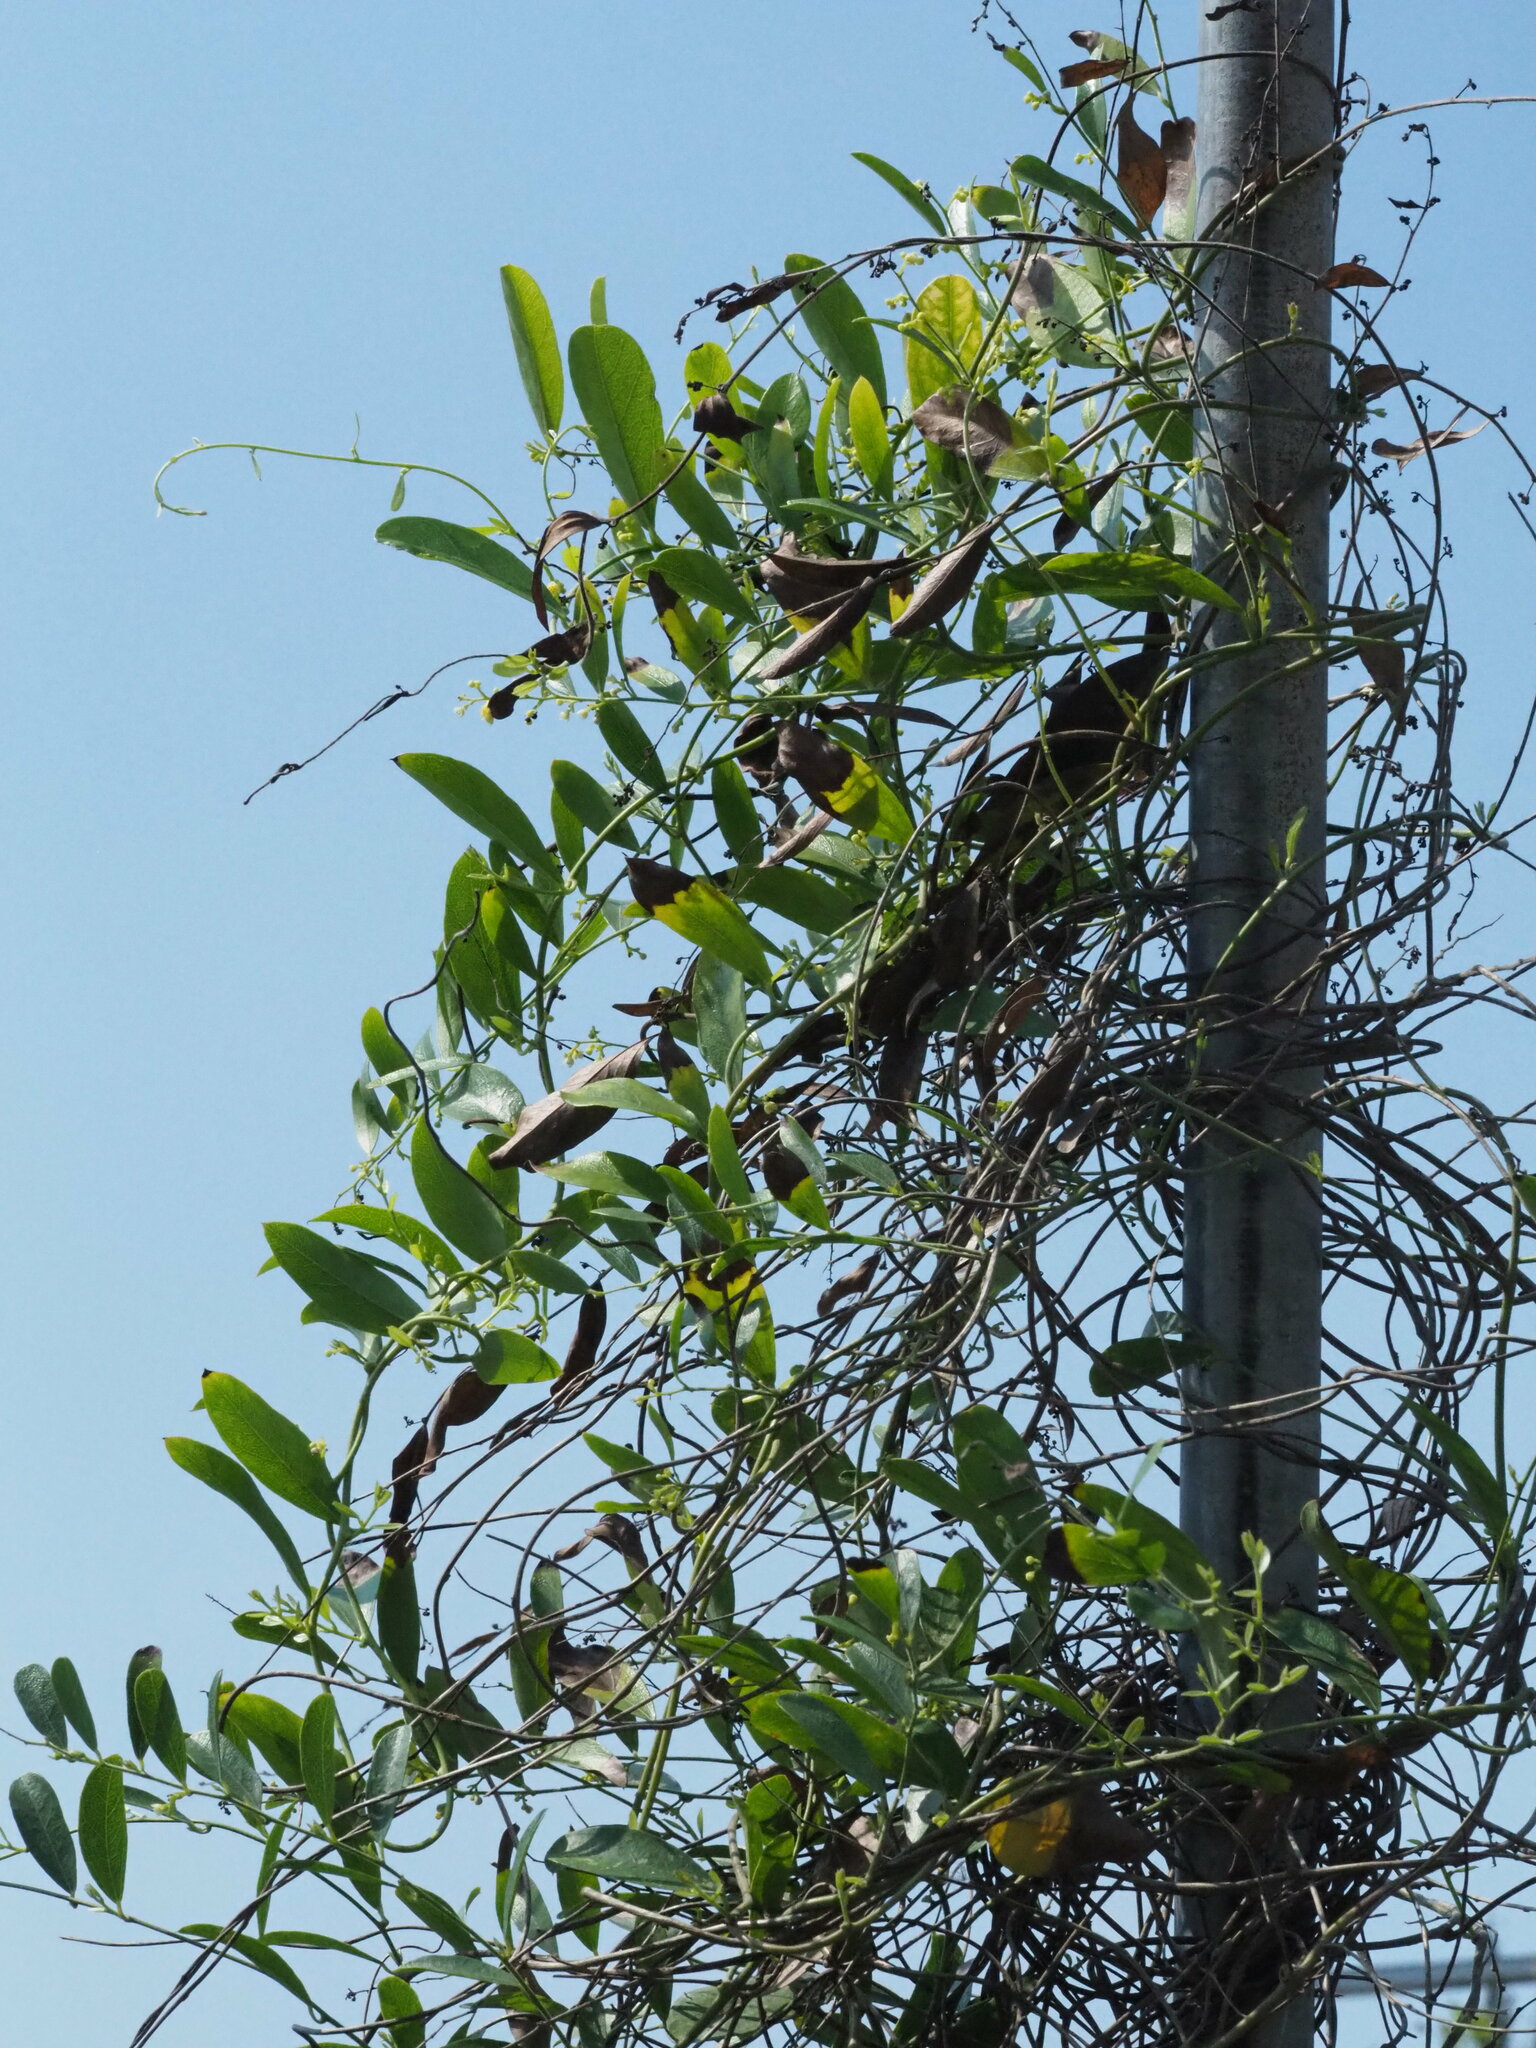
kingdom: Plantae
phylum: Tracheophyta
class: Magnoliopsida
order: Gentianales
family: Rubiaceae
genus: Paederia
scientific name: Paederia foetida
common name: Stinkvine
